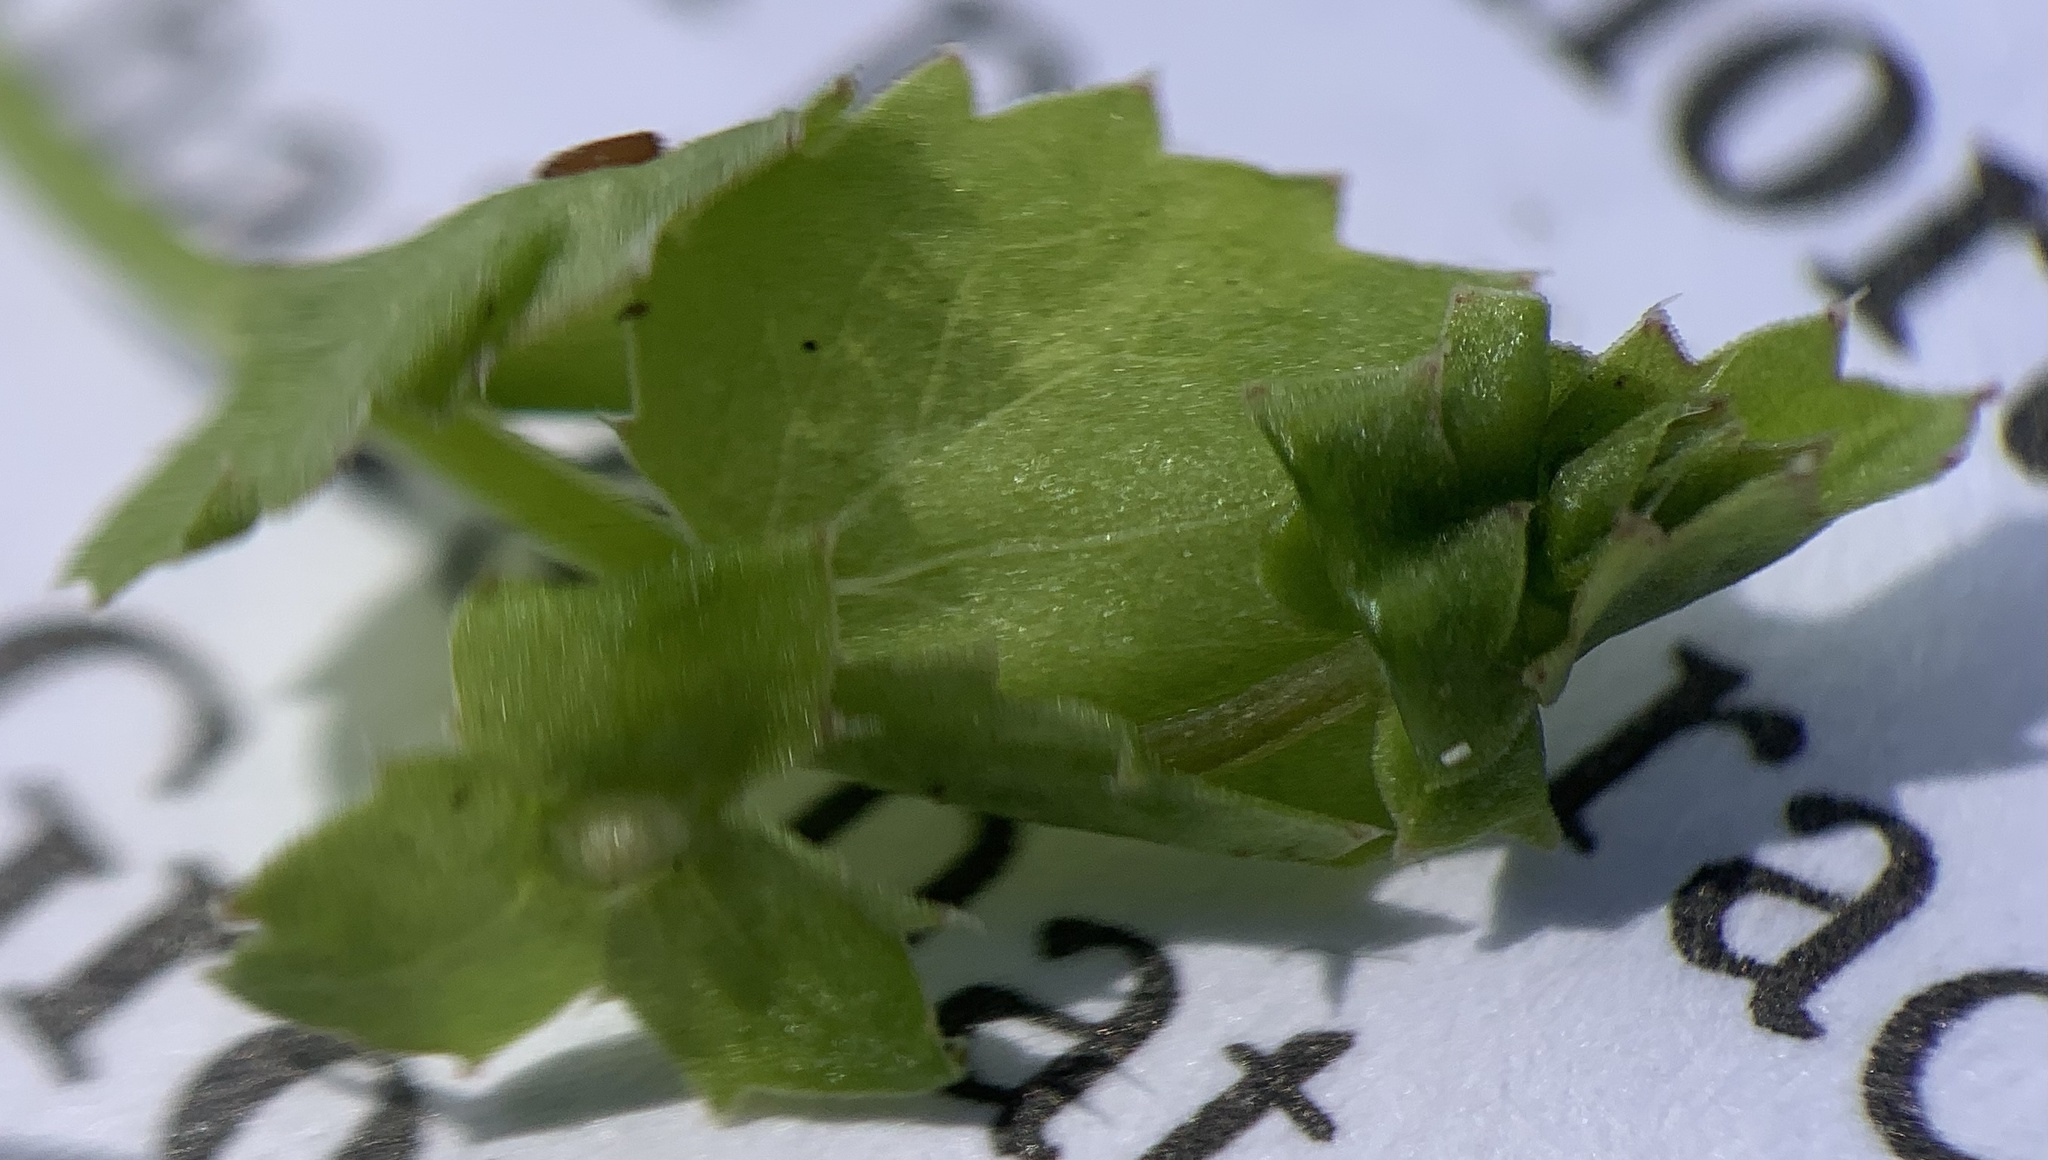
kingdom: Plantae
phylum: Tracheophyta
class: Magnoliopsida
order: Asterales
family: Campanulaceae
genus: Heterocodon
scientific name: Heterocodon rariflorum
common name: Rareflower heterocodon
